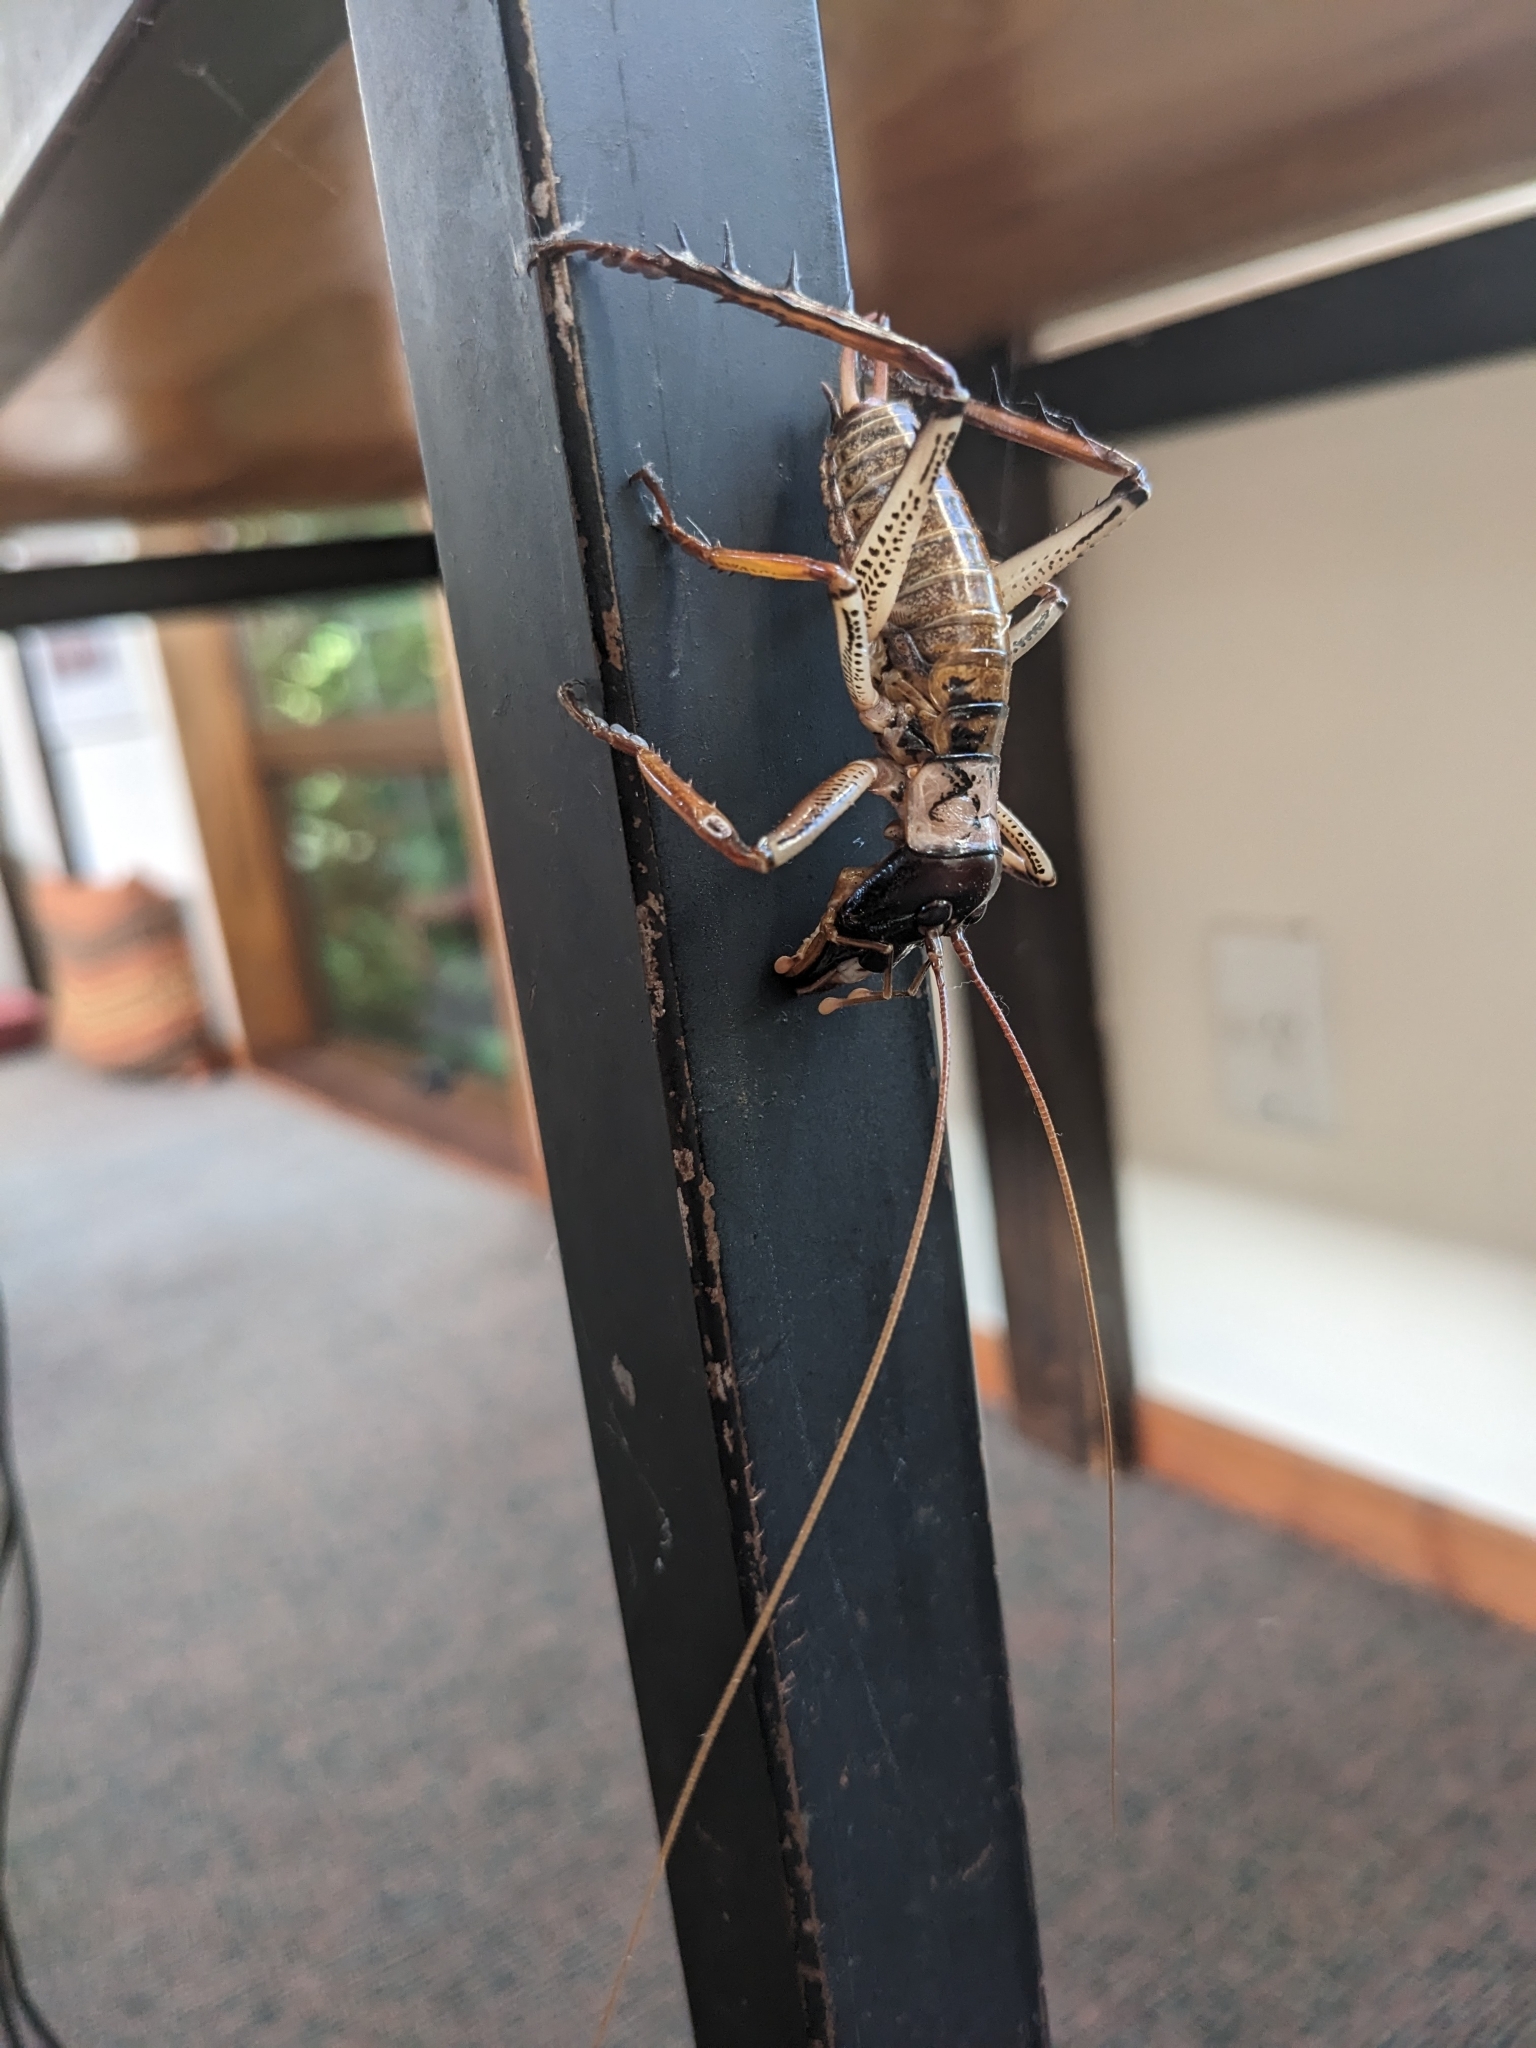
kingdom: Animalia
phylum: Arthropoda
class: Insecta
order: Orthoptera
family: Anostostomatidae
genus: Hemideina
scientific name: Hemideina thoracica
